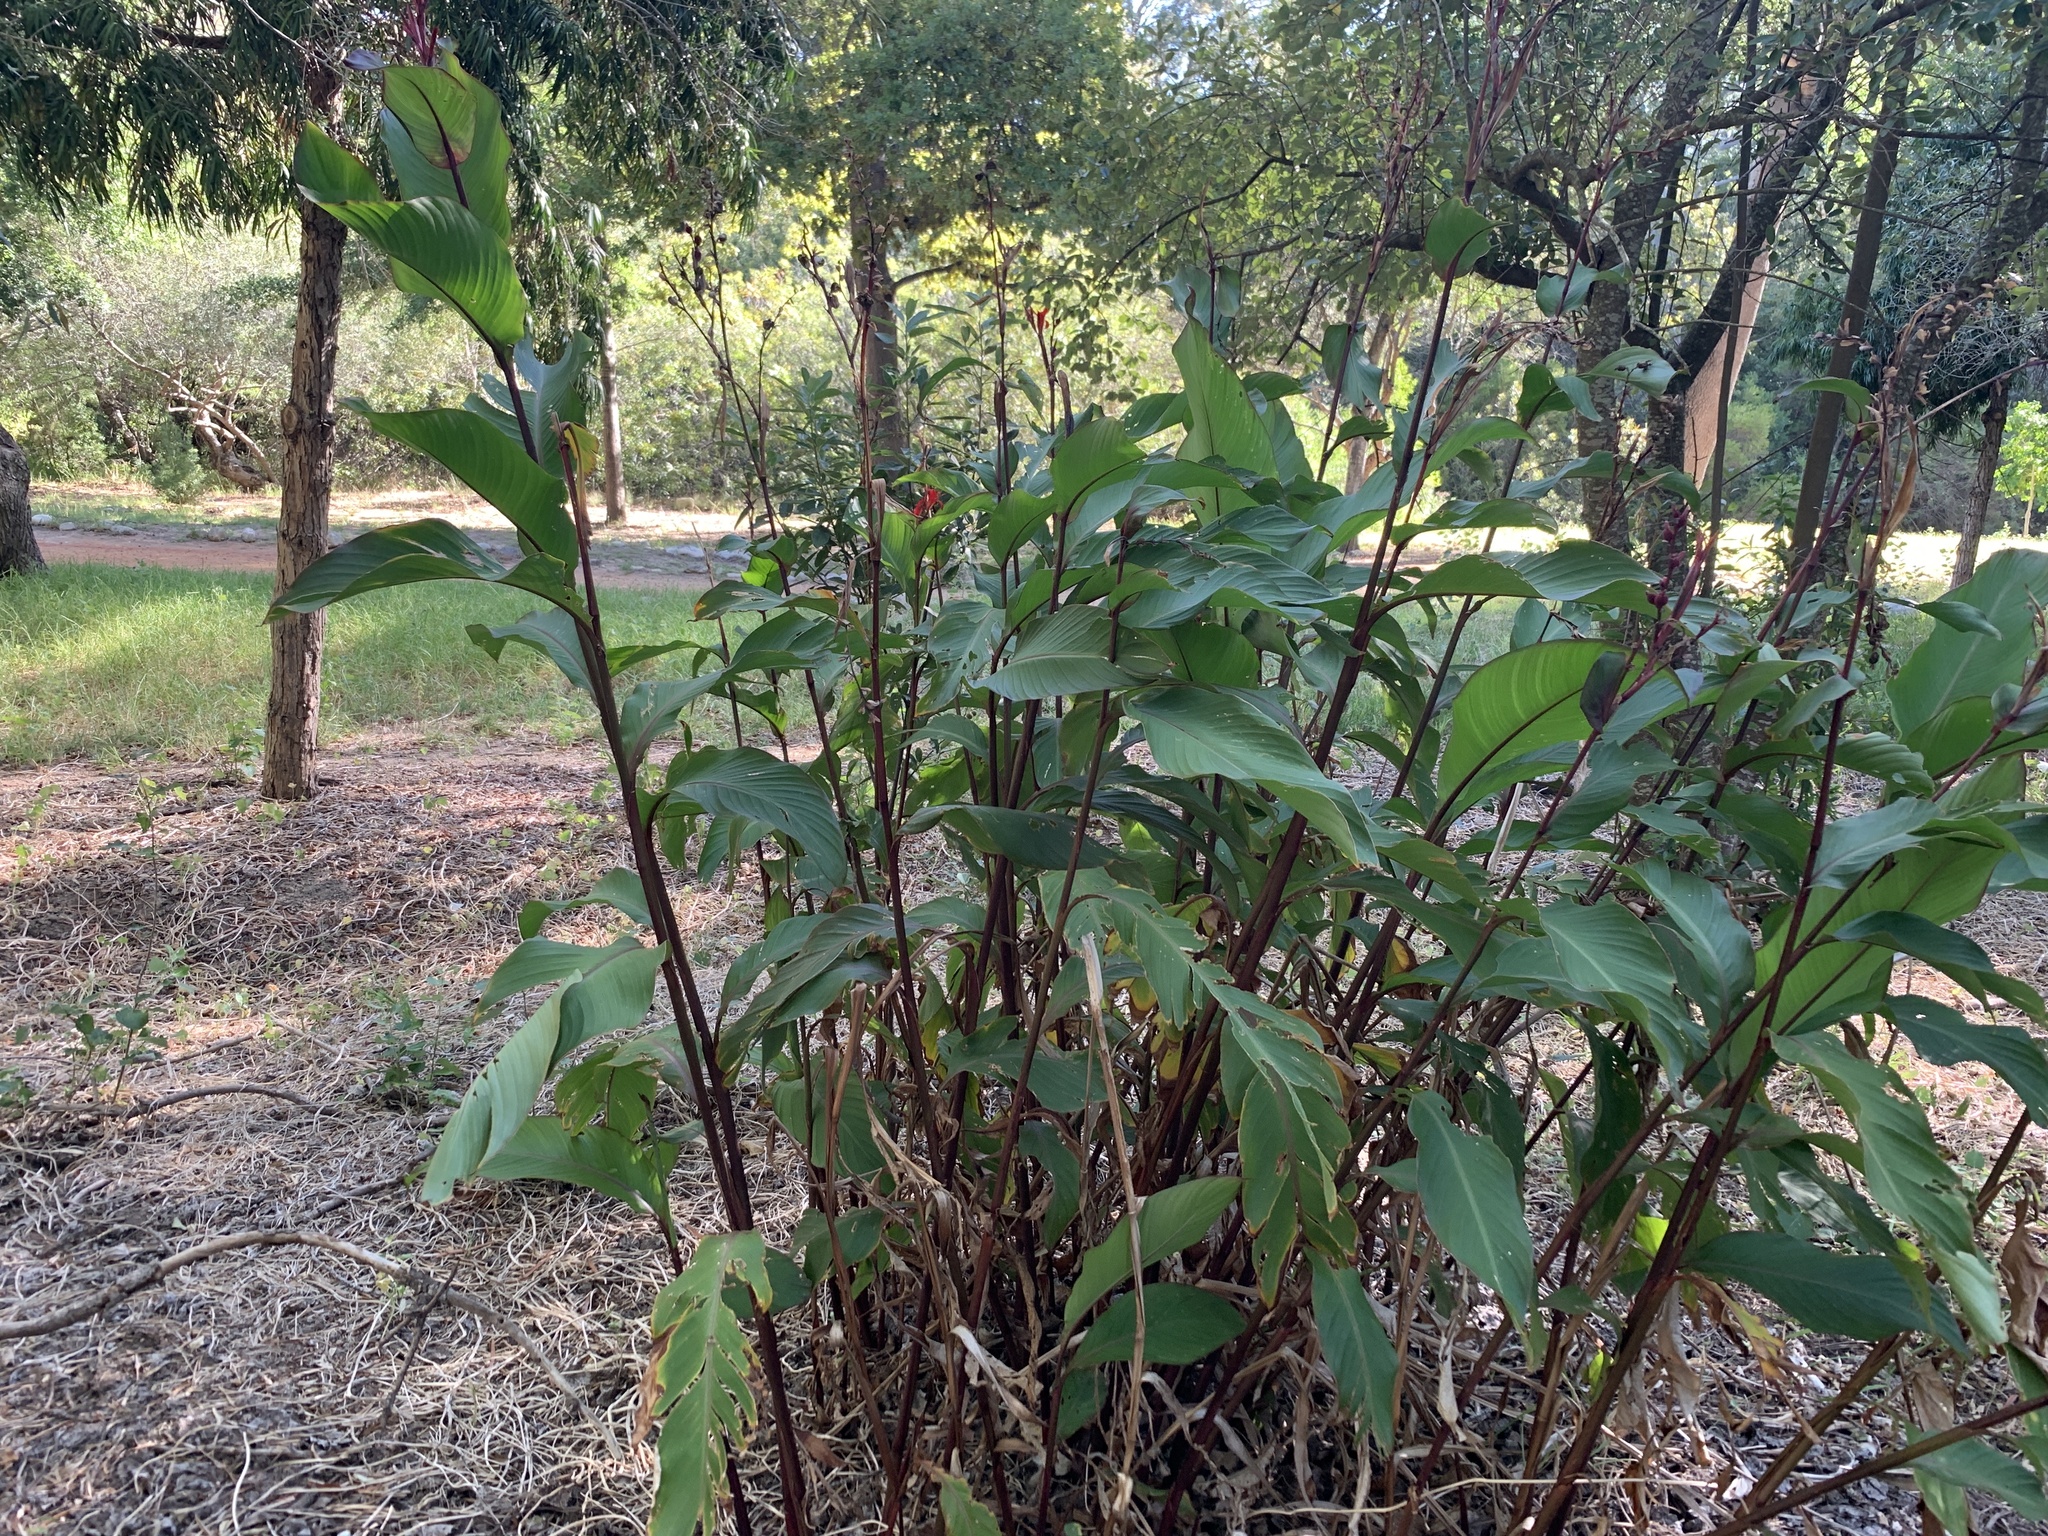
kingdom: Plantae
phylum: Tracheophyta
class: Liliopsida
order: Zingiberales
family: Cannaceae
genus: Canna
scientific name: Canna indica
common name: Indian shot
